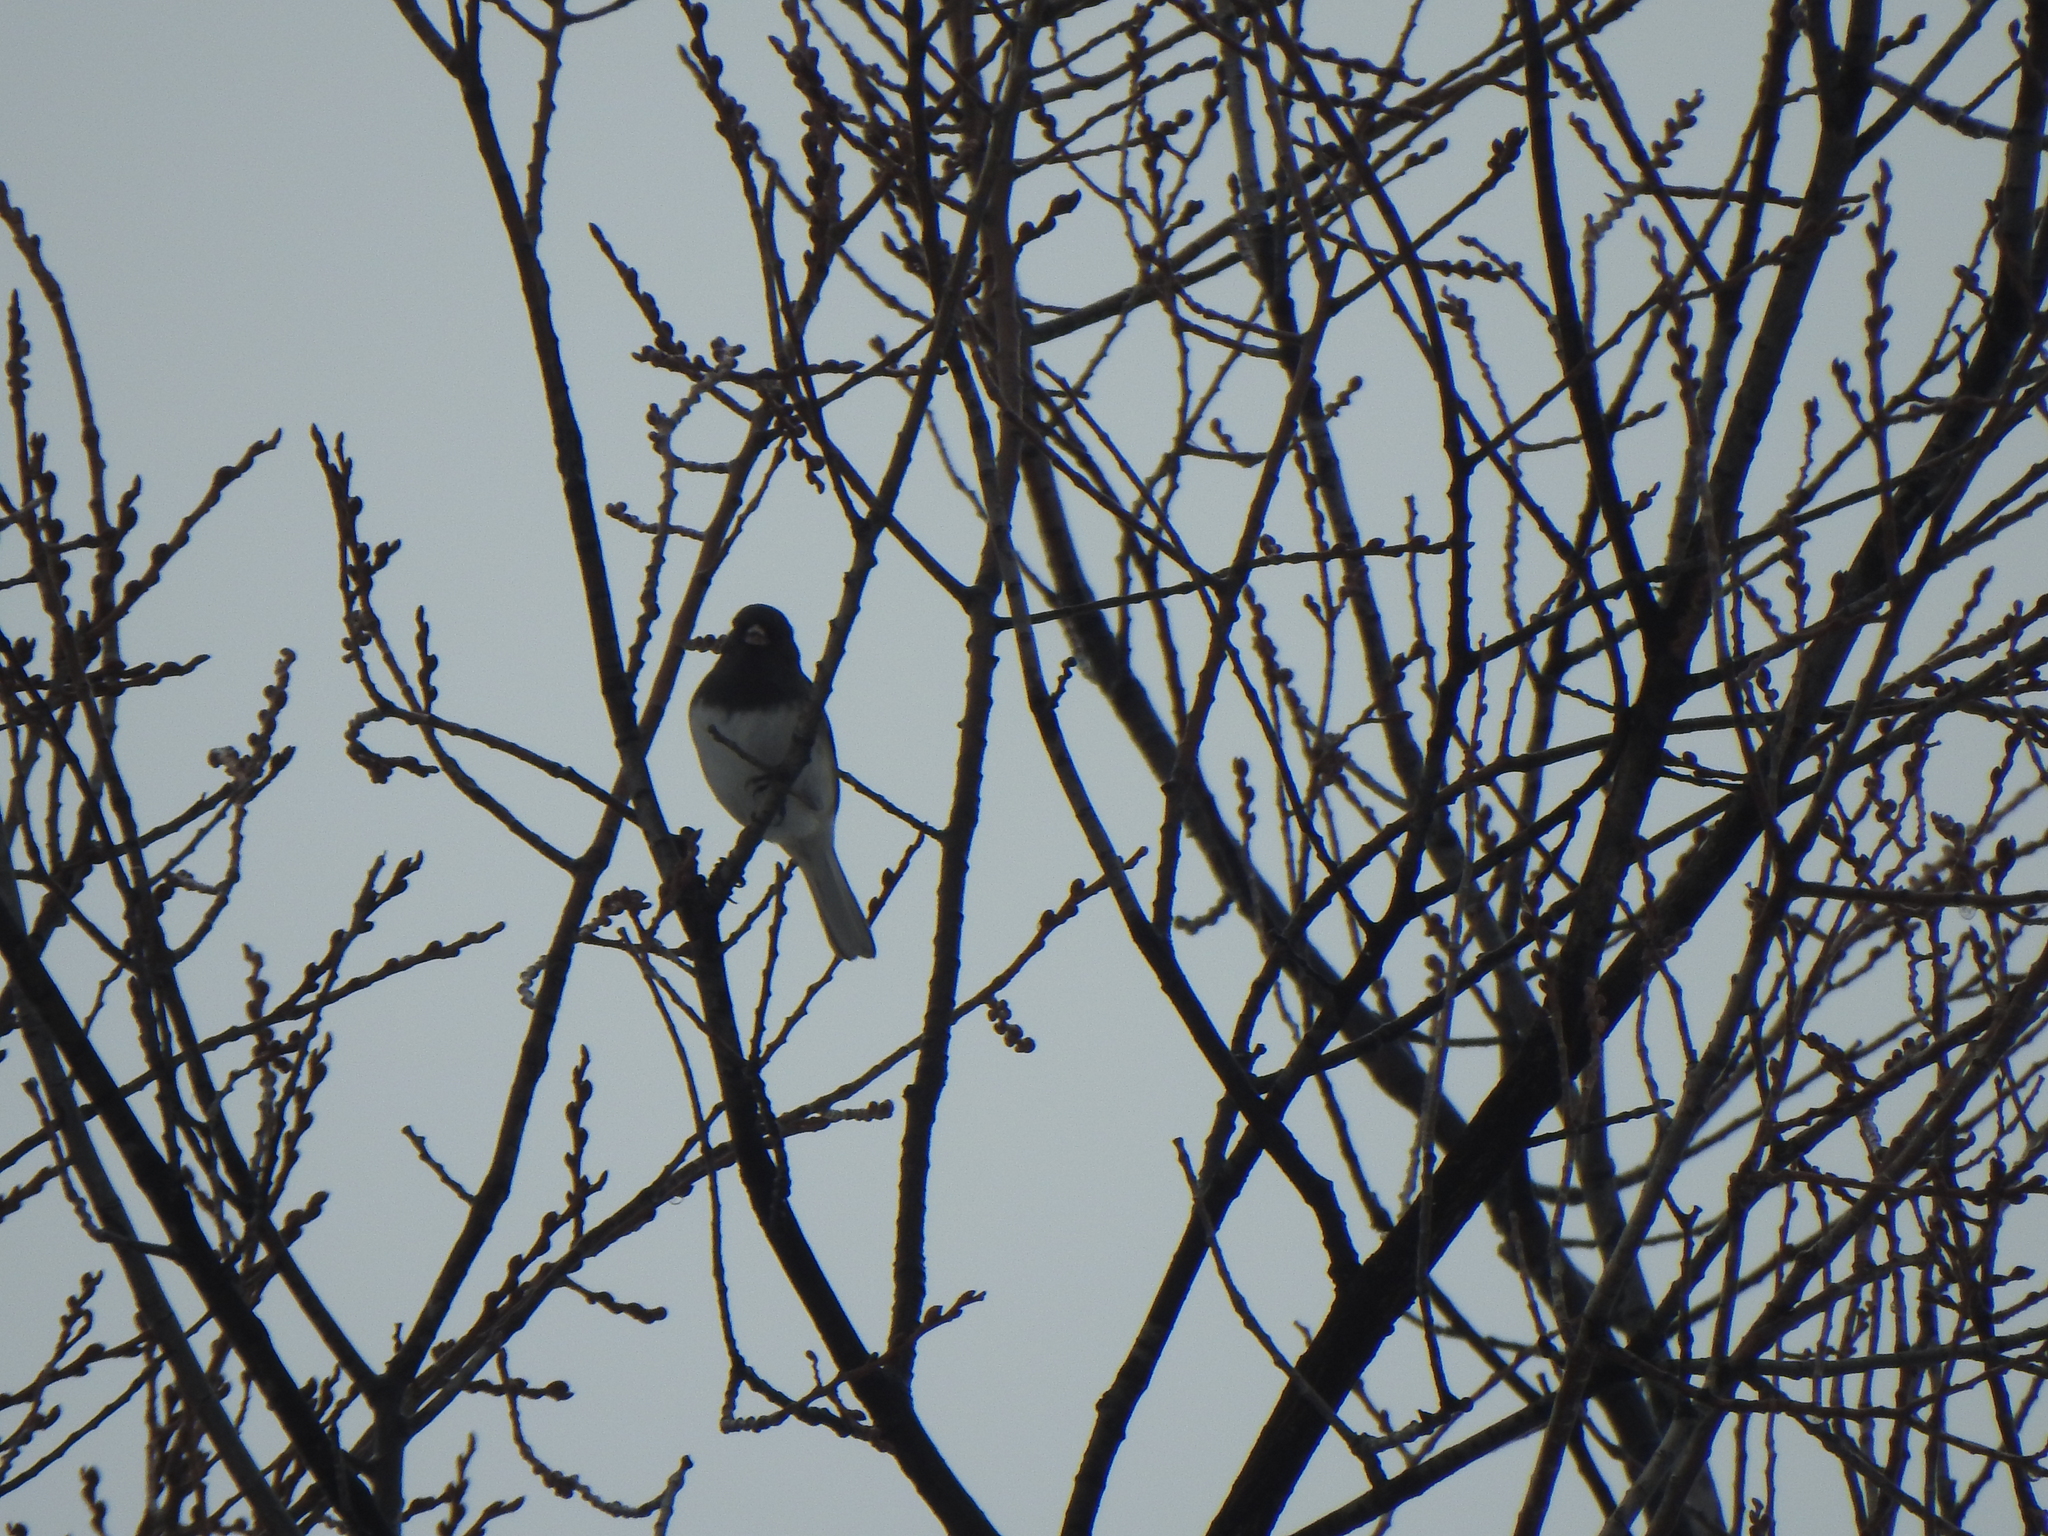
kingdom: Animalia
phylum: Chordata
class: Aves
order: Passeriformes
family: Passerellidae
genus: Junco
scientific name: Junco hyemalis
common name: Dark-eyed junco
